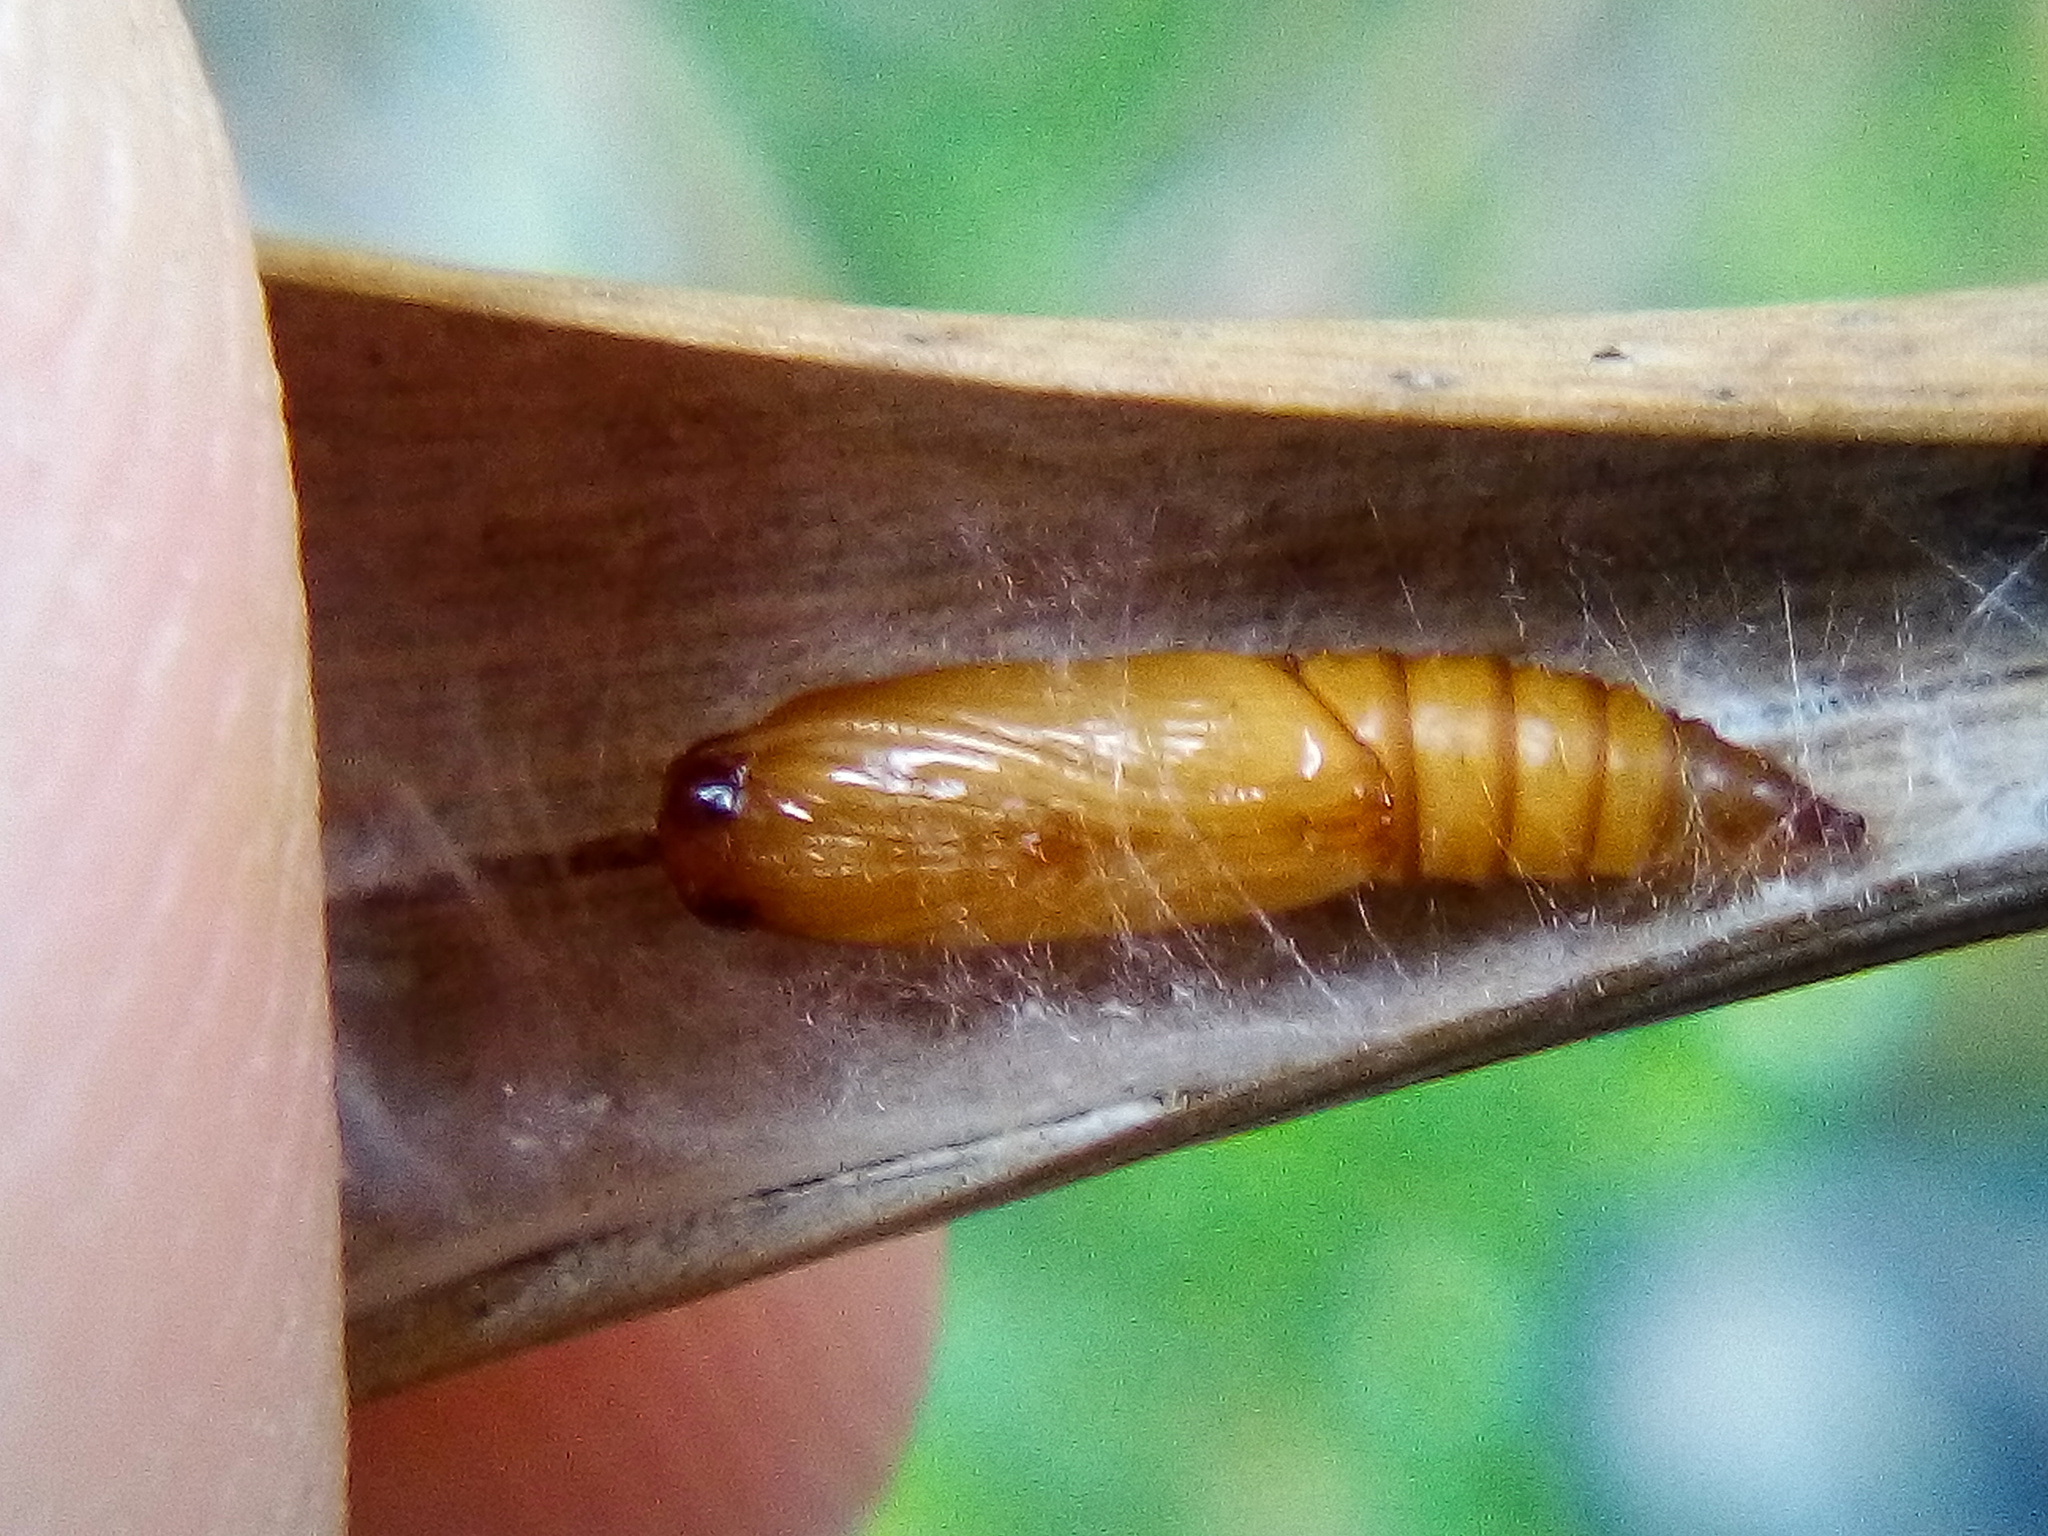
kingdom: Animalia
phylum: Arthropoda
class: Insecta
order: Lepidoptera
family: Tortricidae
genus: Catamacta
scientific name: Catamacta lotinana
